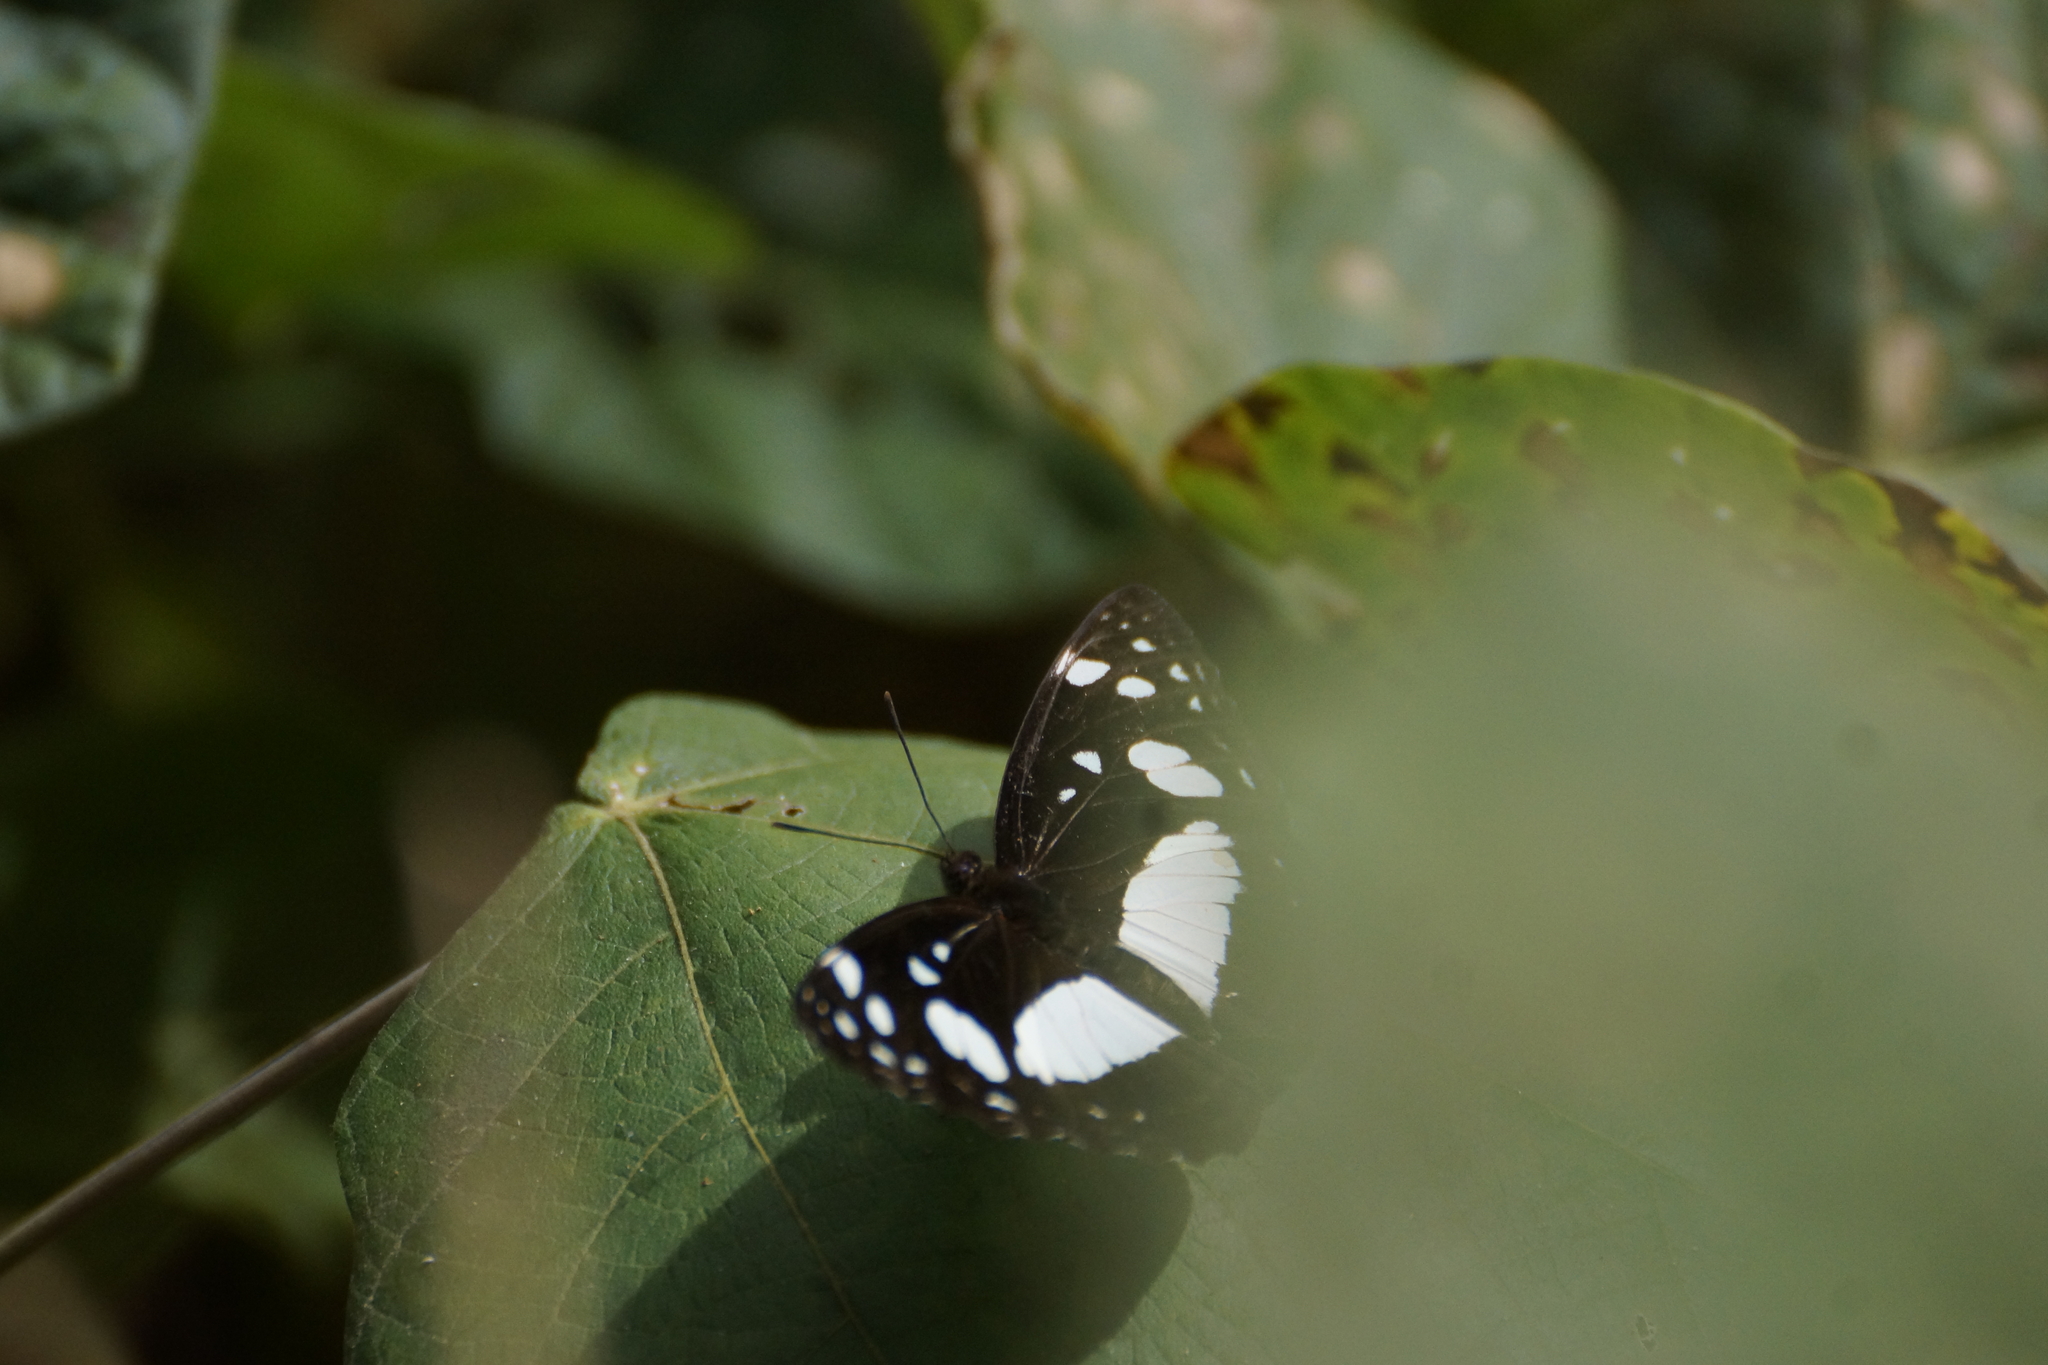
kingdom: Animalia
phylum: Arthropoda
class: Insecta
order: Lepidoptera
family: Nymphalidae
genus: Pantoporia
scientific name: Pantoporia venilia
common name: Cape york aeroplane
